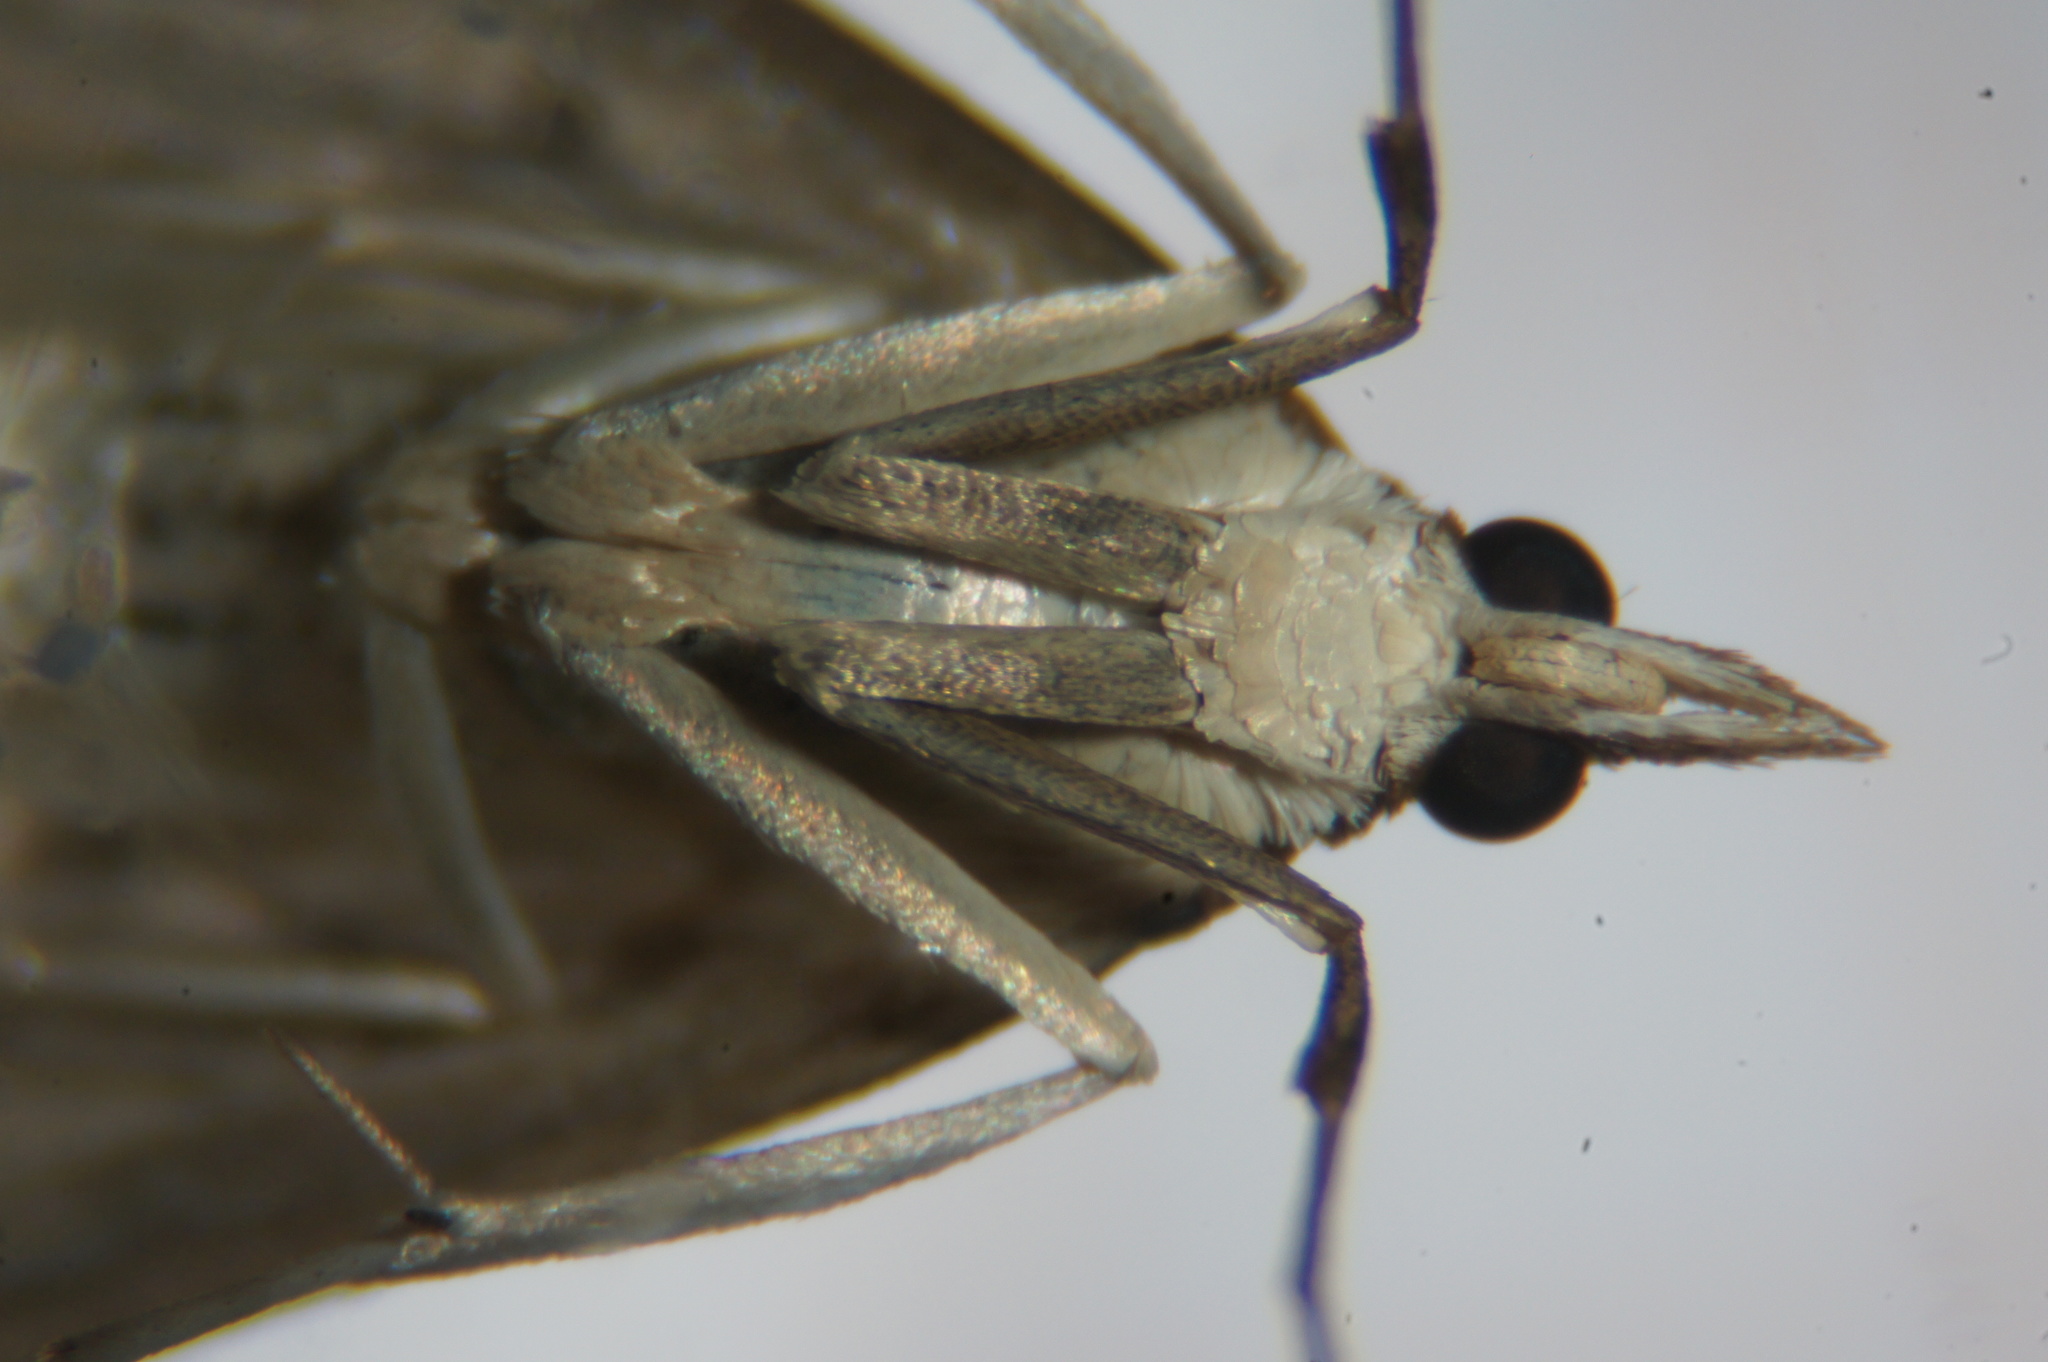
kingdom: Animalia
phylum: Arthropoda
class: Insecta
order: Lepidoptera
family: Crambidae
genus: Udea
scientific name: Udea ferrugalis
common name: Rusty dot
